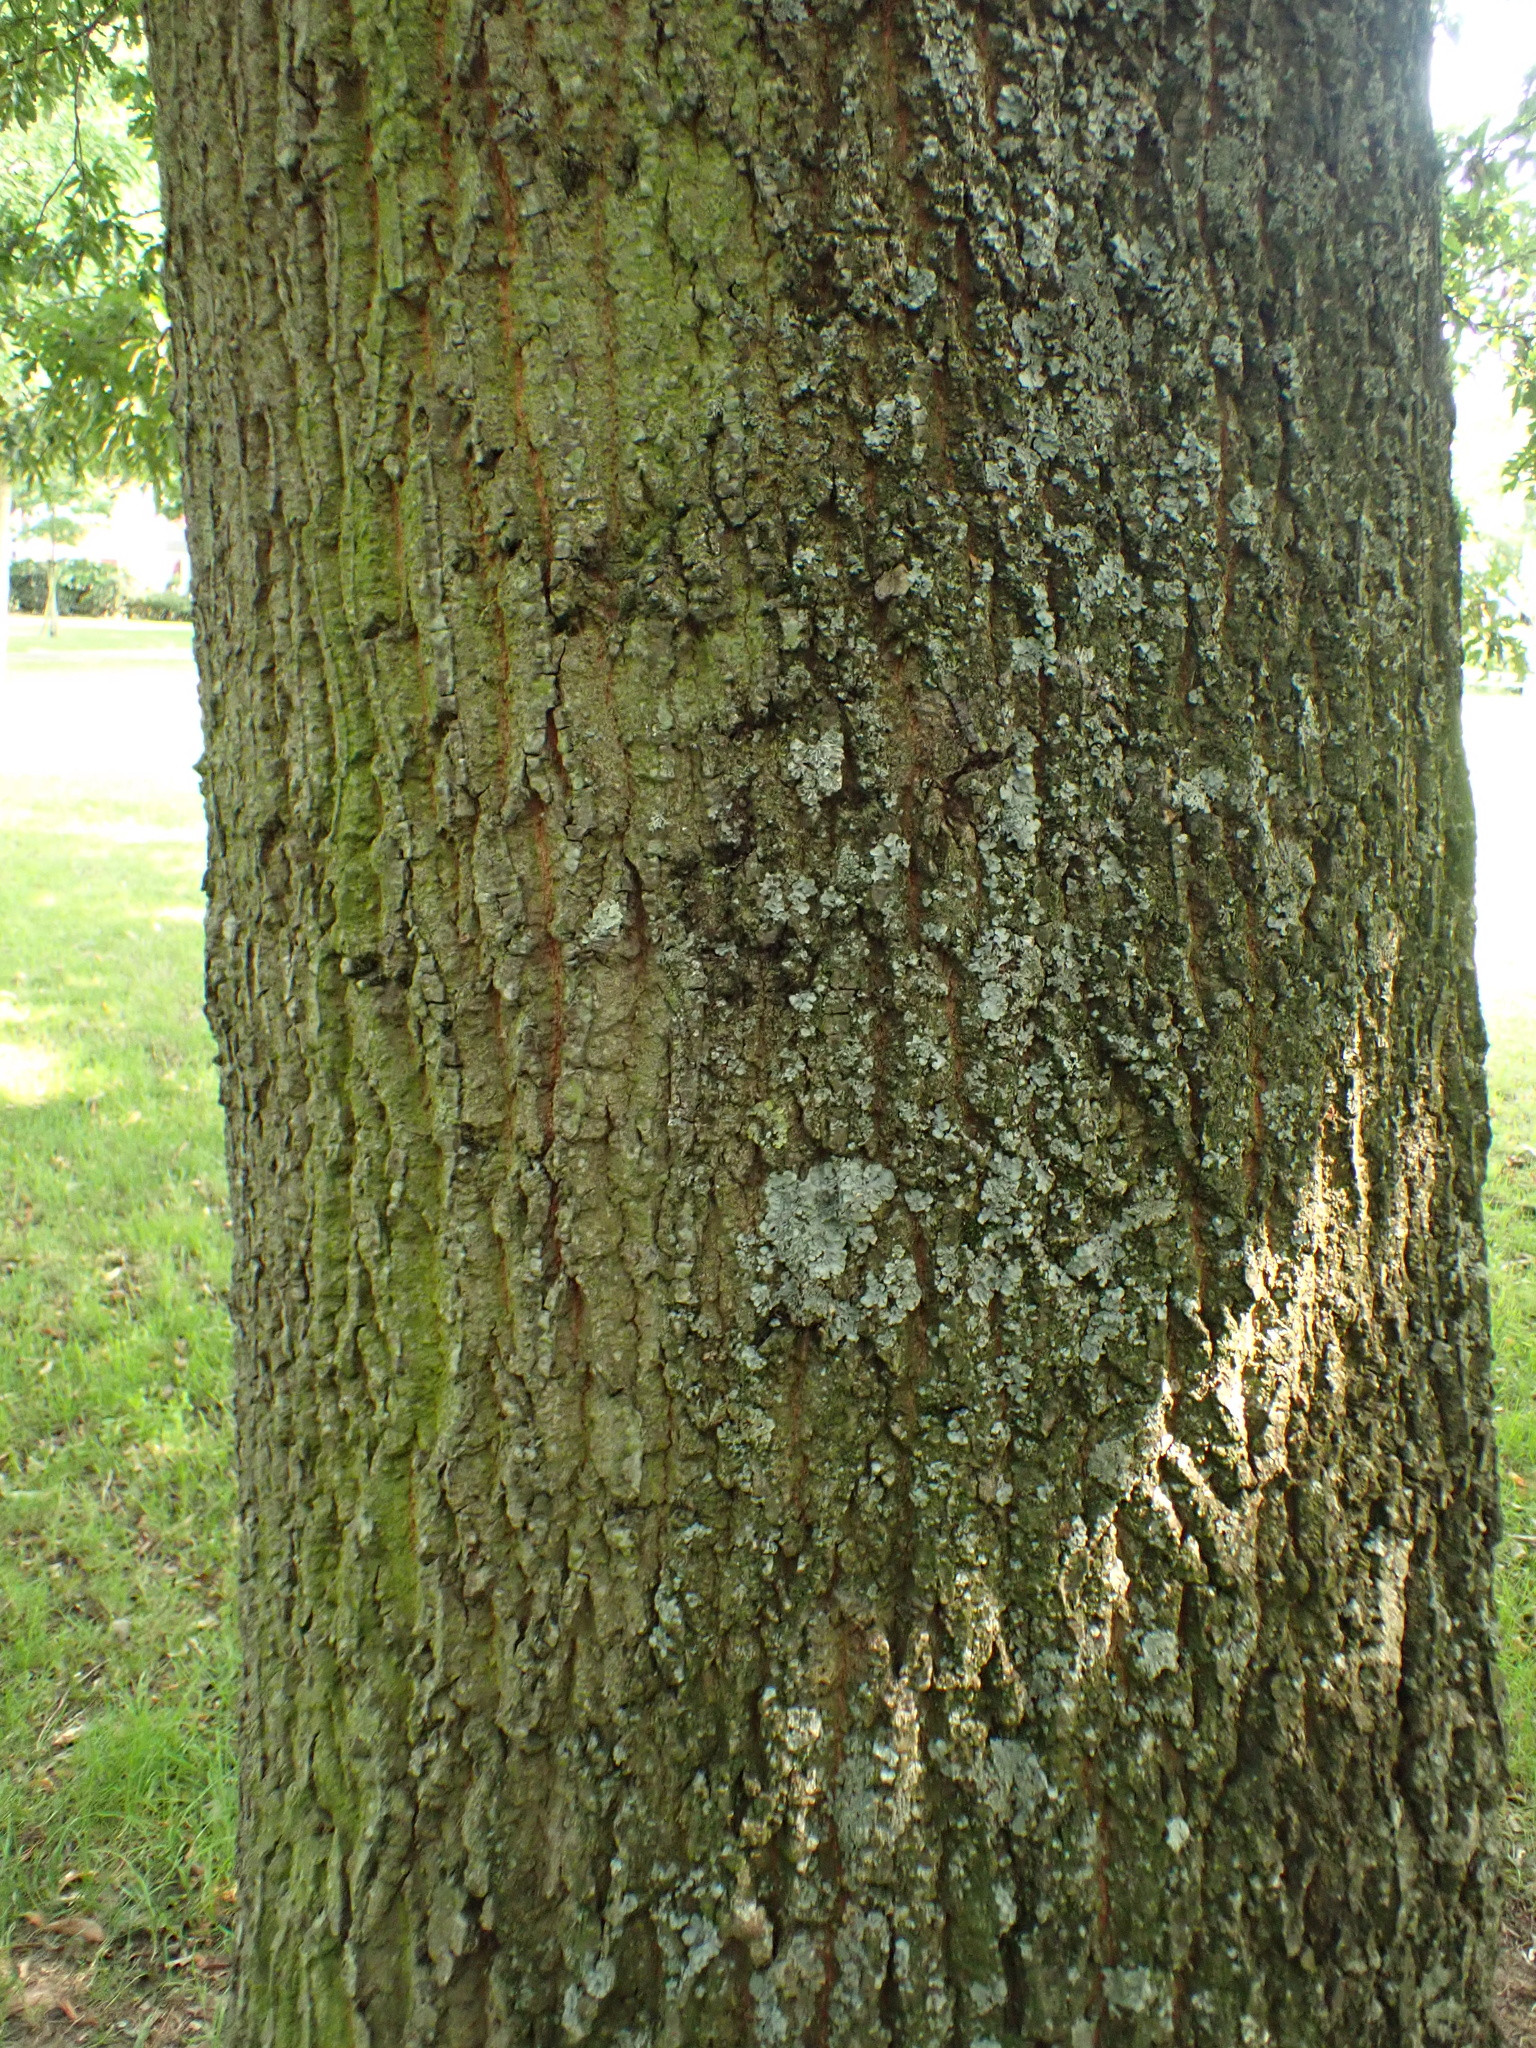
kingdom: Plantae
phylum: Tracheophyta
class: Magnoliopsida
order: Fagales
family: Fagaceae
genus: Quercus
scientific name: Quercus cerris
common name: Turkey oak
